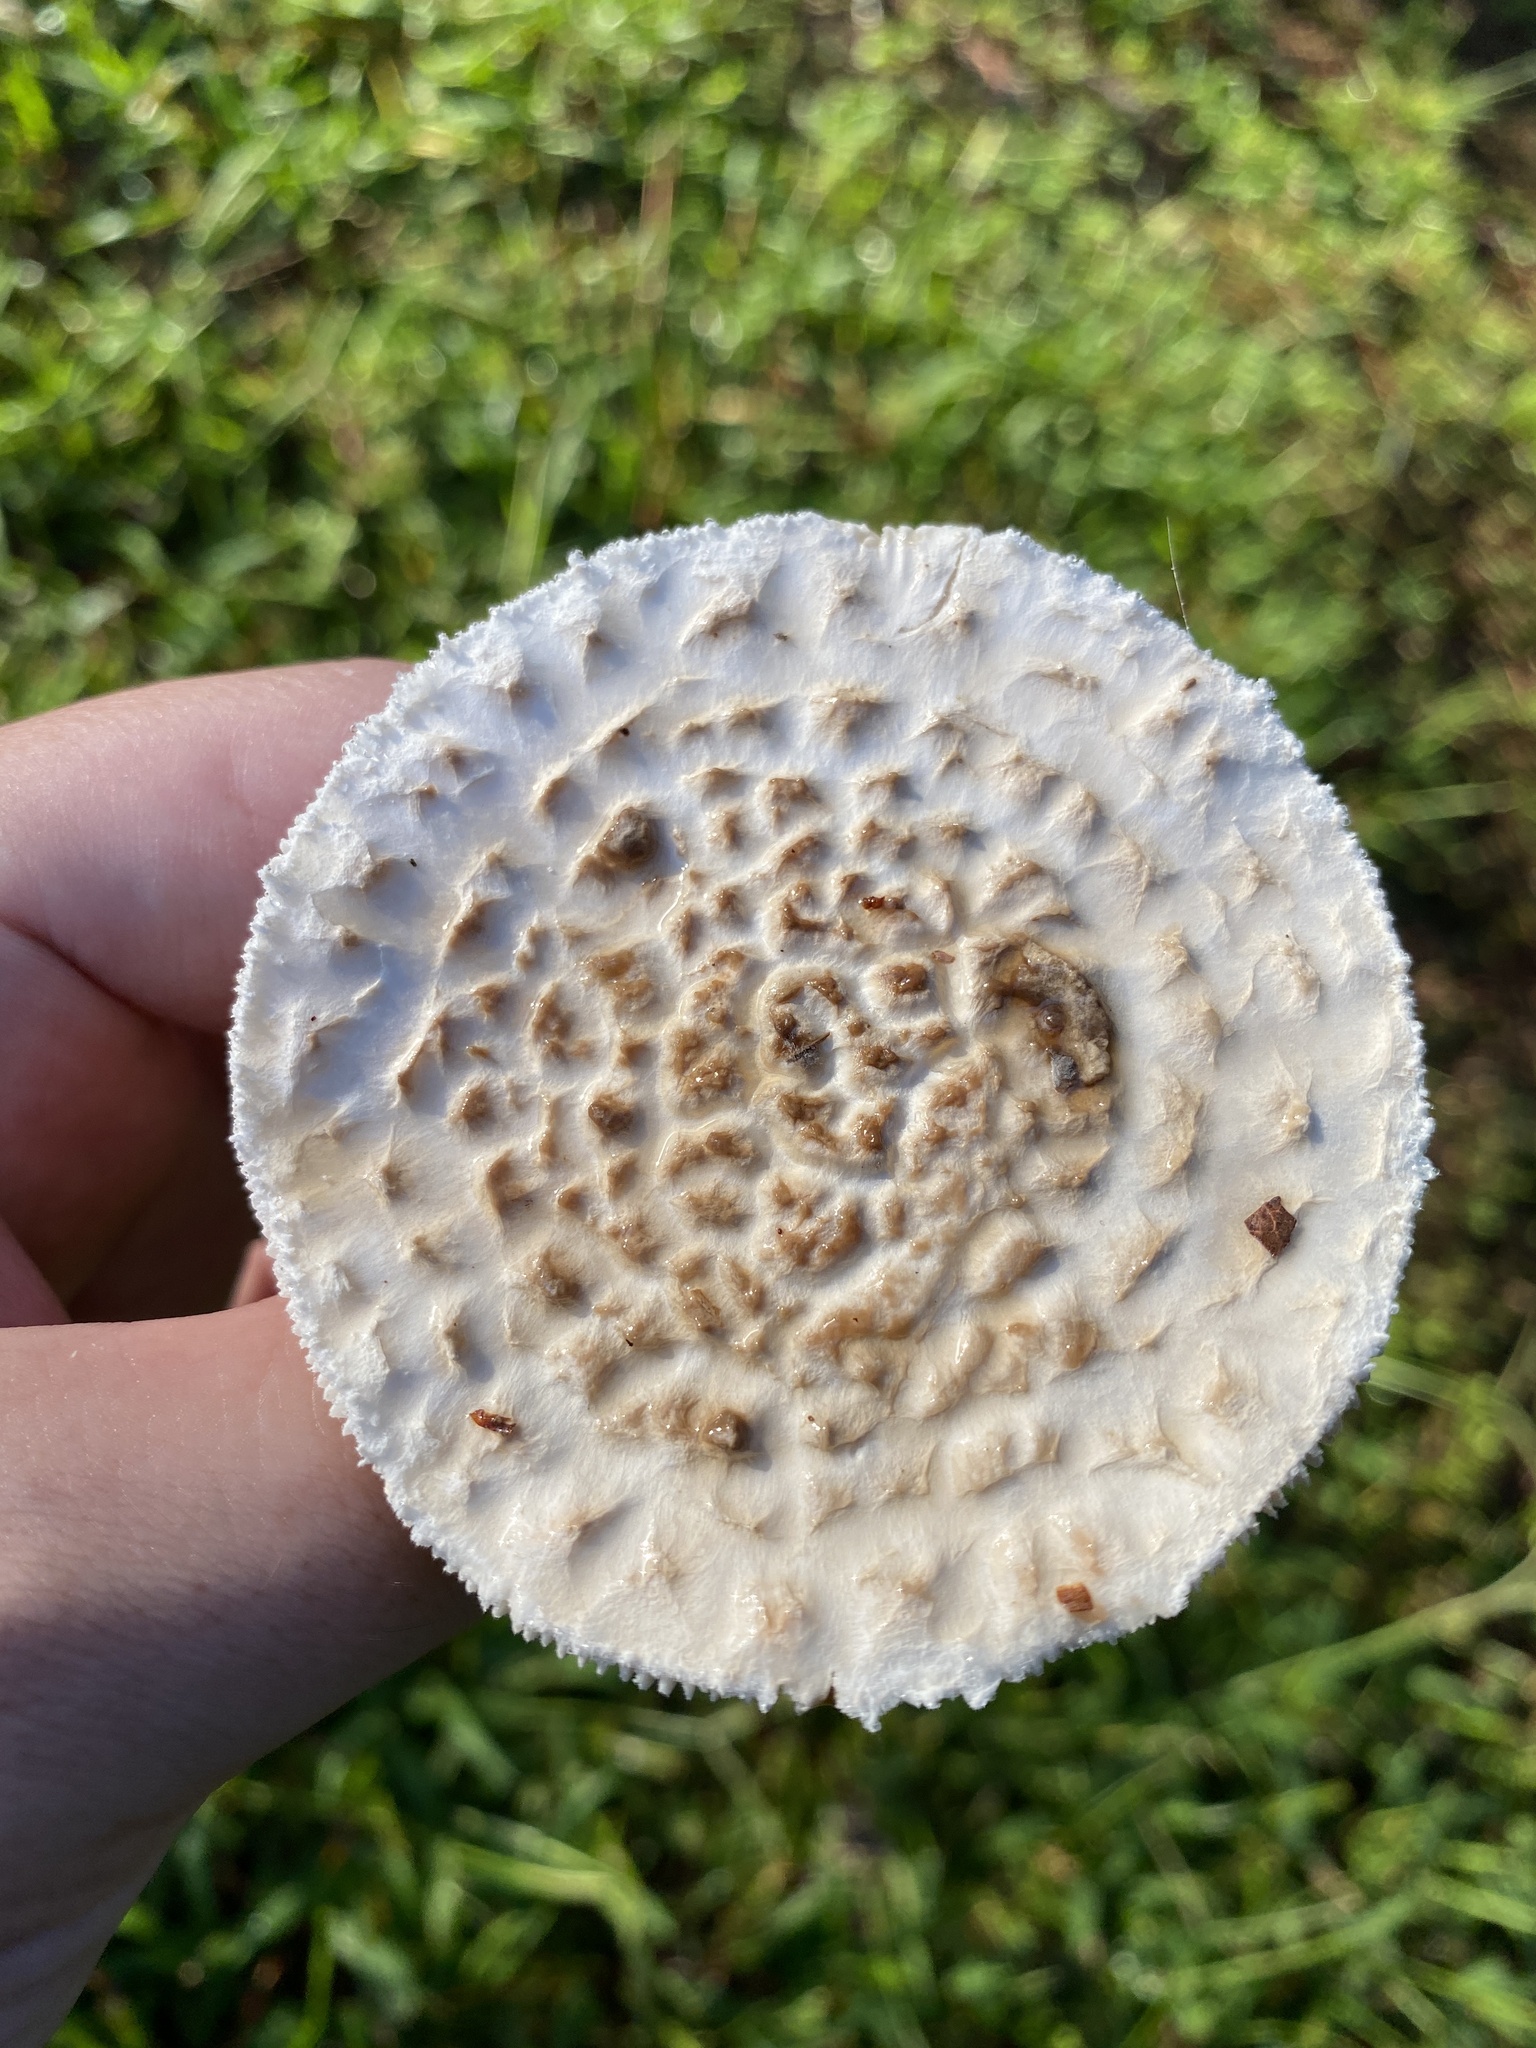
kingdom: Fungi
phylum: Basidiomycota
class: Agaricomycetes
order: Agaricales
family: Amanitaceae
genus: Aspidella
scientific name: Aspidella hesleri
